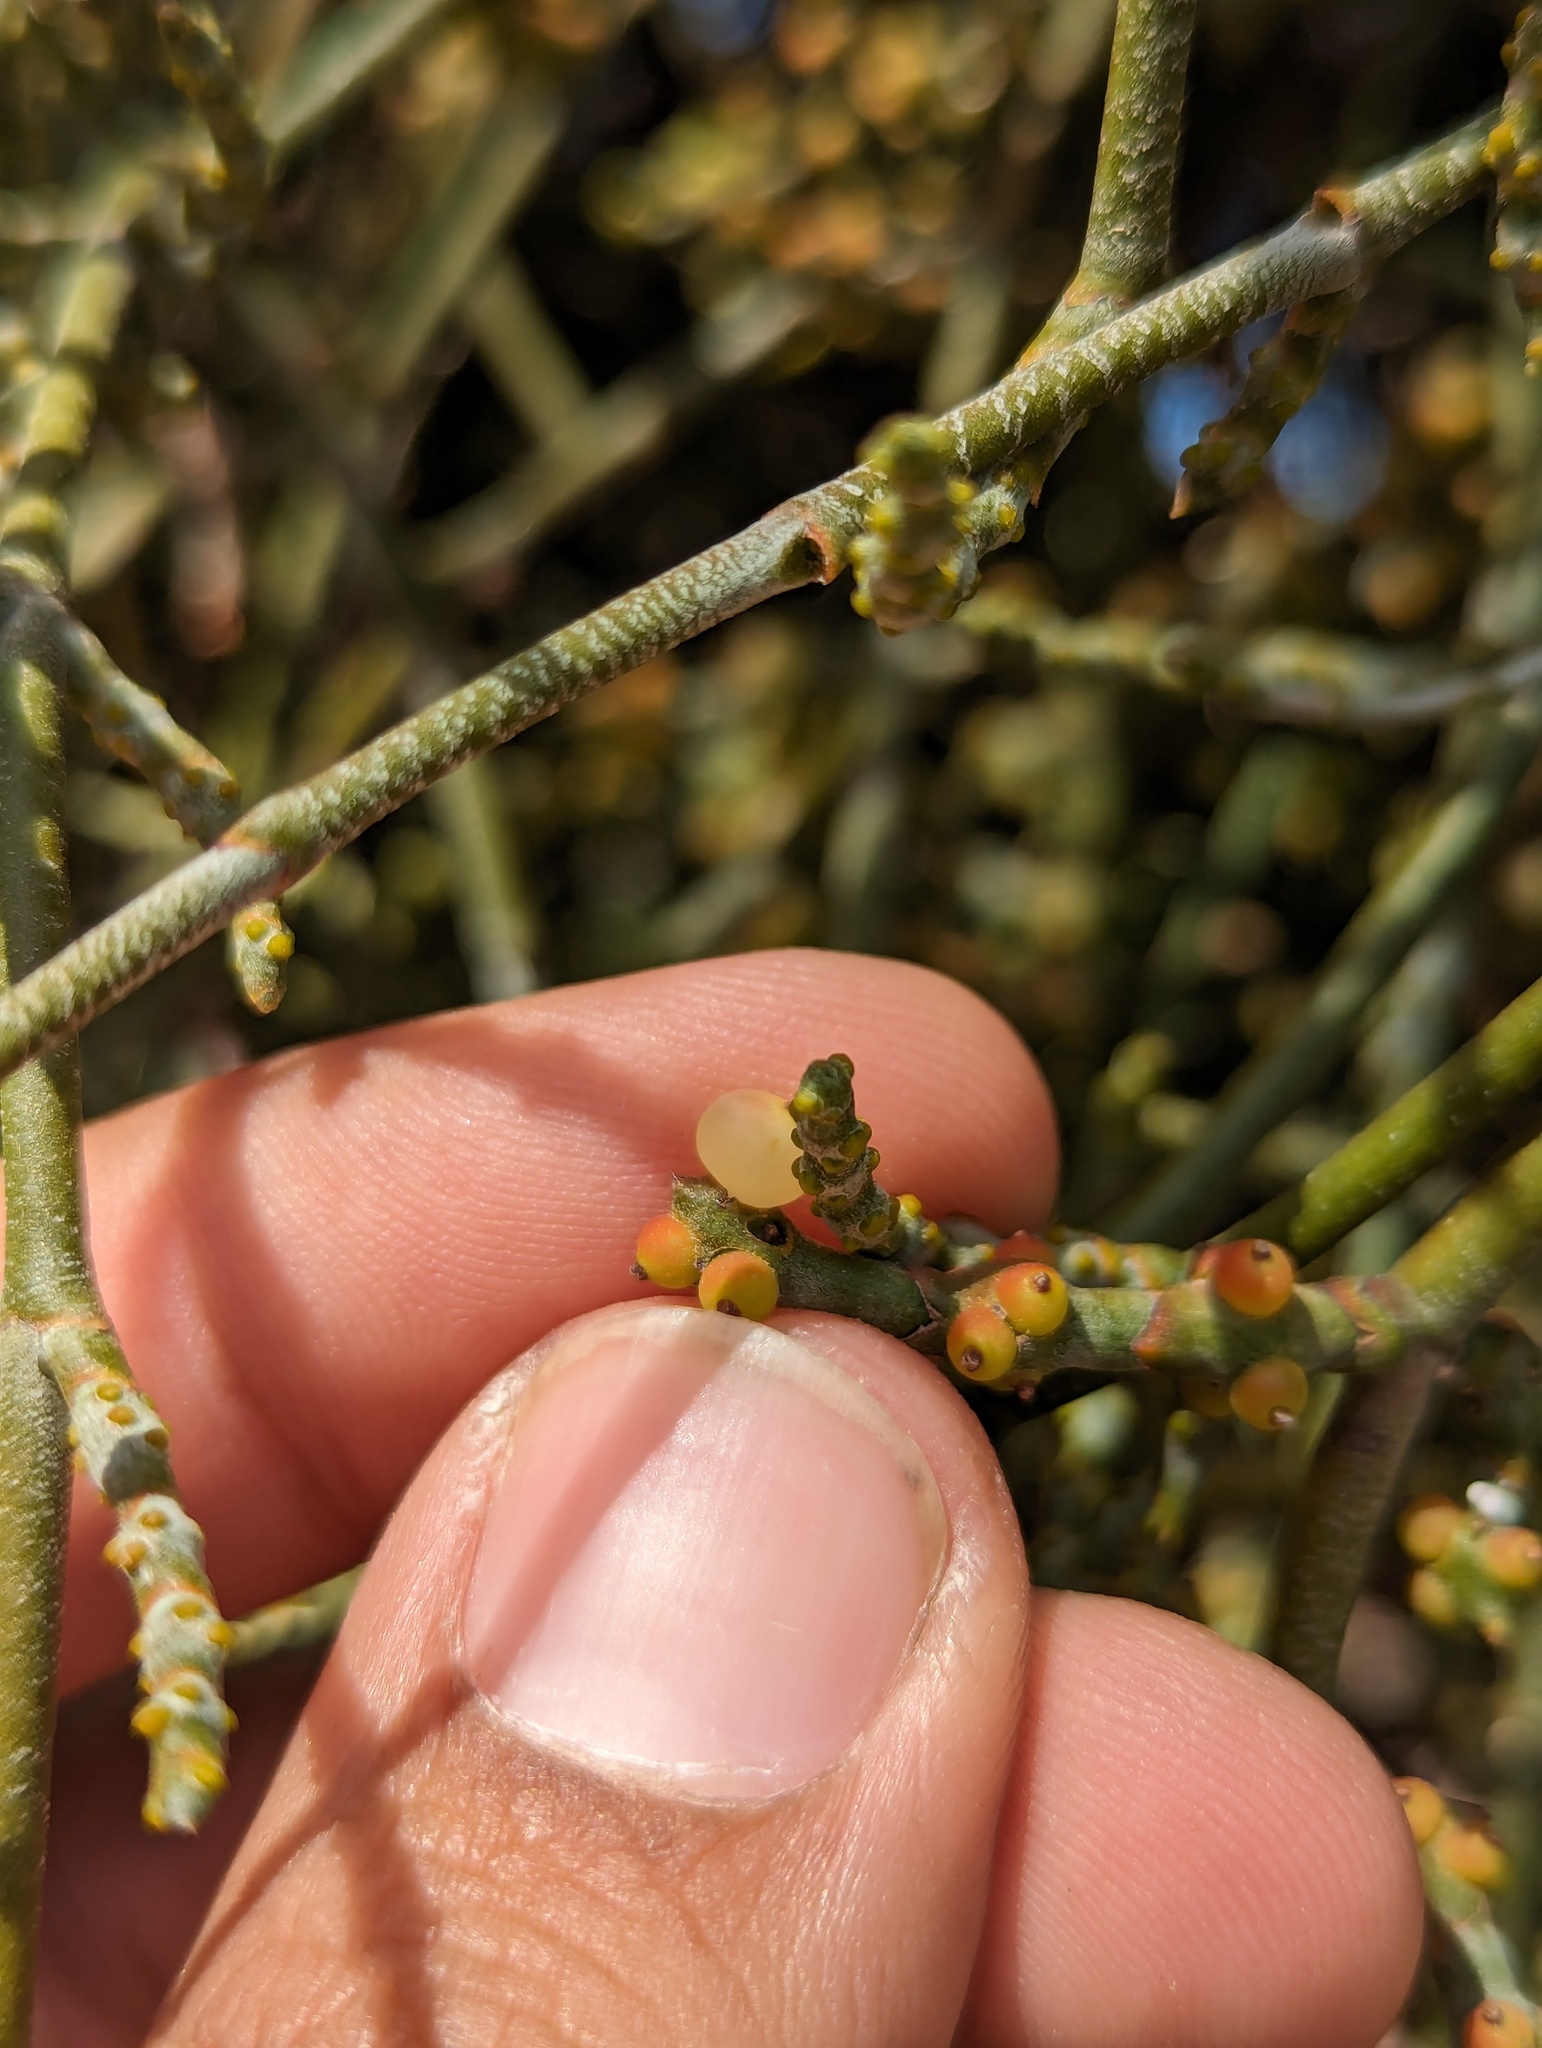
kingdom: Plantae
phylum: Tracheophyta
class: Magnoliopsida
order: Santalales
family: Viscaceae
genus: Phoradendron
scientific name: Phoradendron californicum
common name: Acacia mistletoe
